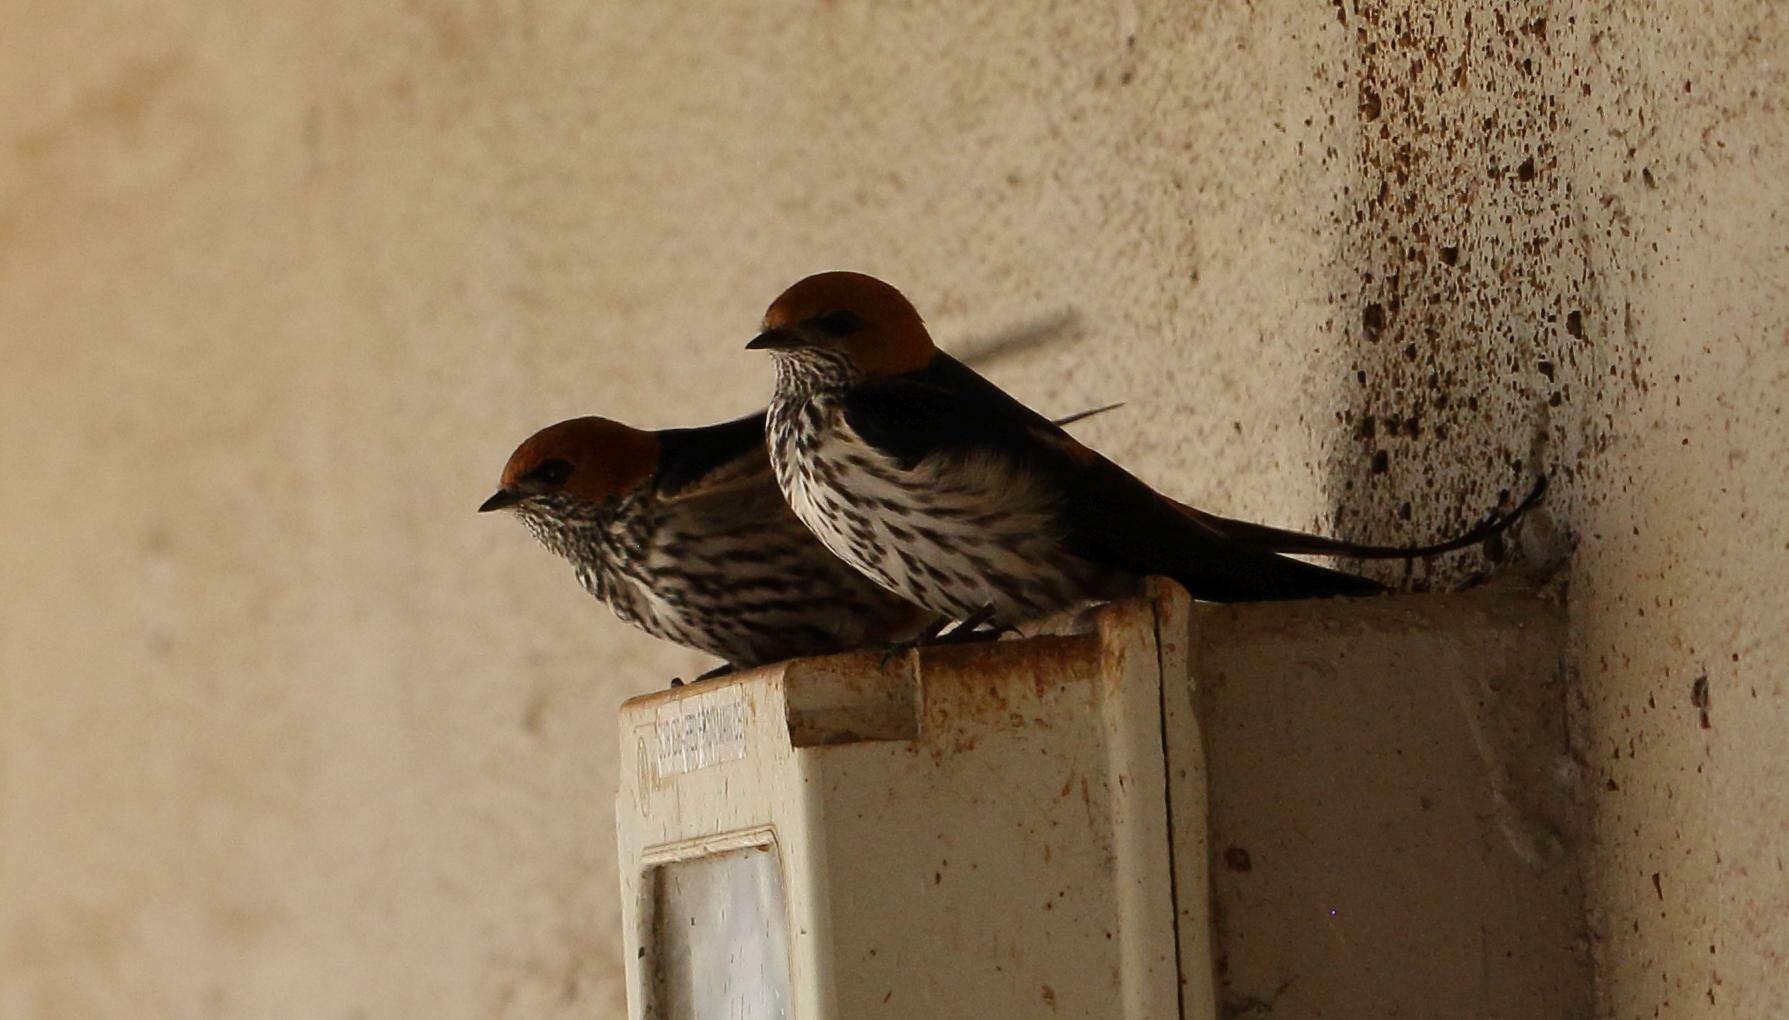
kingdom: Animalia
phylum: Chordata
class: Aves
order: Passeriformes
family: Hirundinidae
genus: Cecropis
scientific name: Cecropis abyssinica
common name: Lesser striped-swallow
